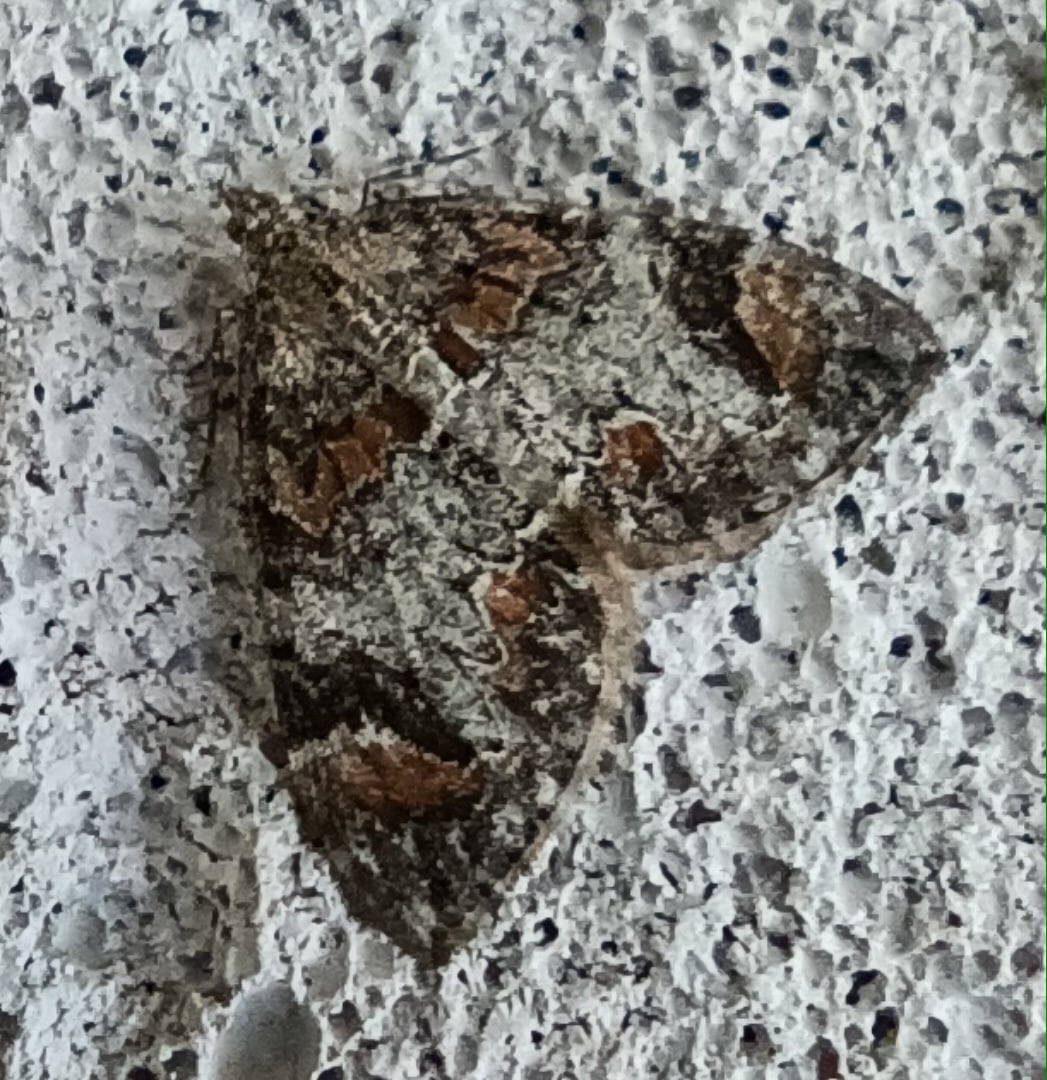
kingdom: Animalia
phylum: Arthropoda
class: Insecta
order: Lepidoptera
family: Geometridae
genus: Dysstroma
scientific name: Dysstroma citrata
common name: Dark marbled carpet
